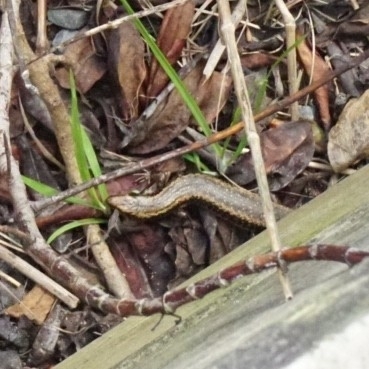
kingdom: Animalia
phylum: Chordata
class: Squamata
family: Scincidae
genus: Oligosoma
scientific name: Oligosoma polychroma
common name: Common new zealand skink
